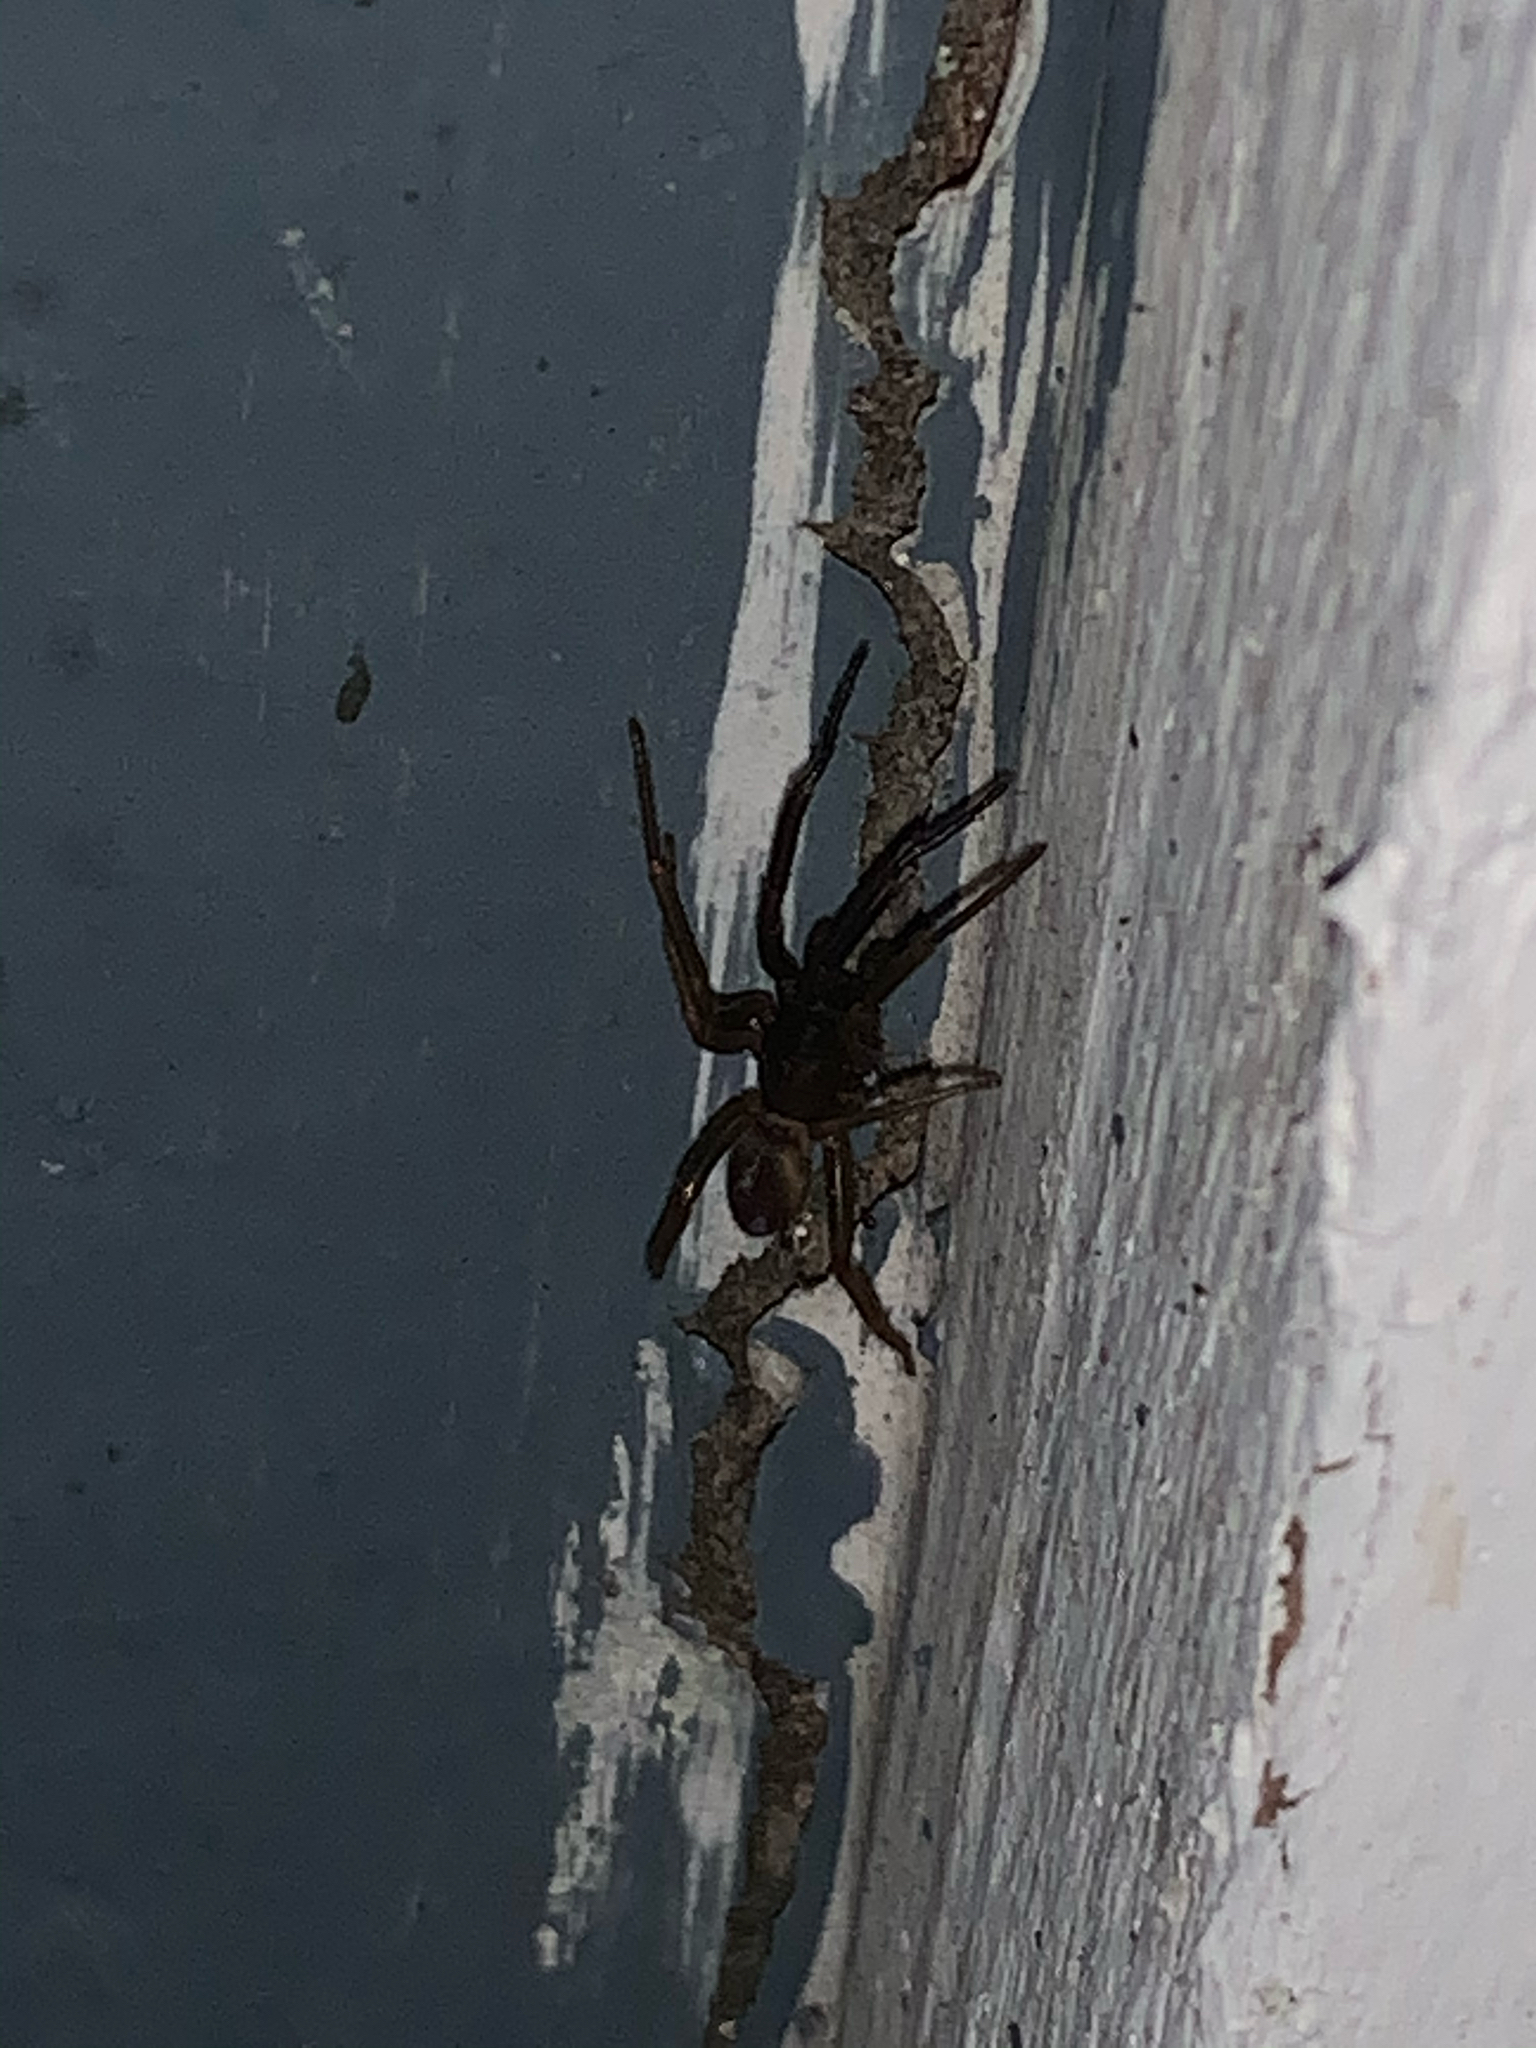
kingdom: Animalia
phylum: Arthropoda
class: Arachnida
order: Araneae
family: Segestriidae
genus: Ariadna
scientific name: Ariadna bicolor
